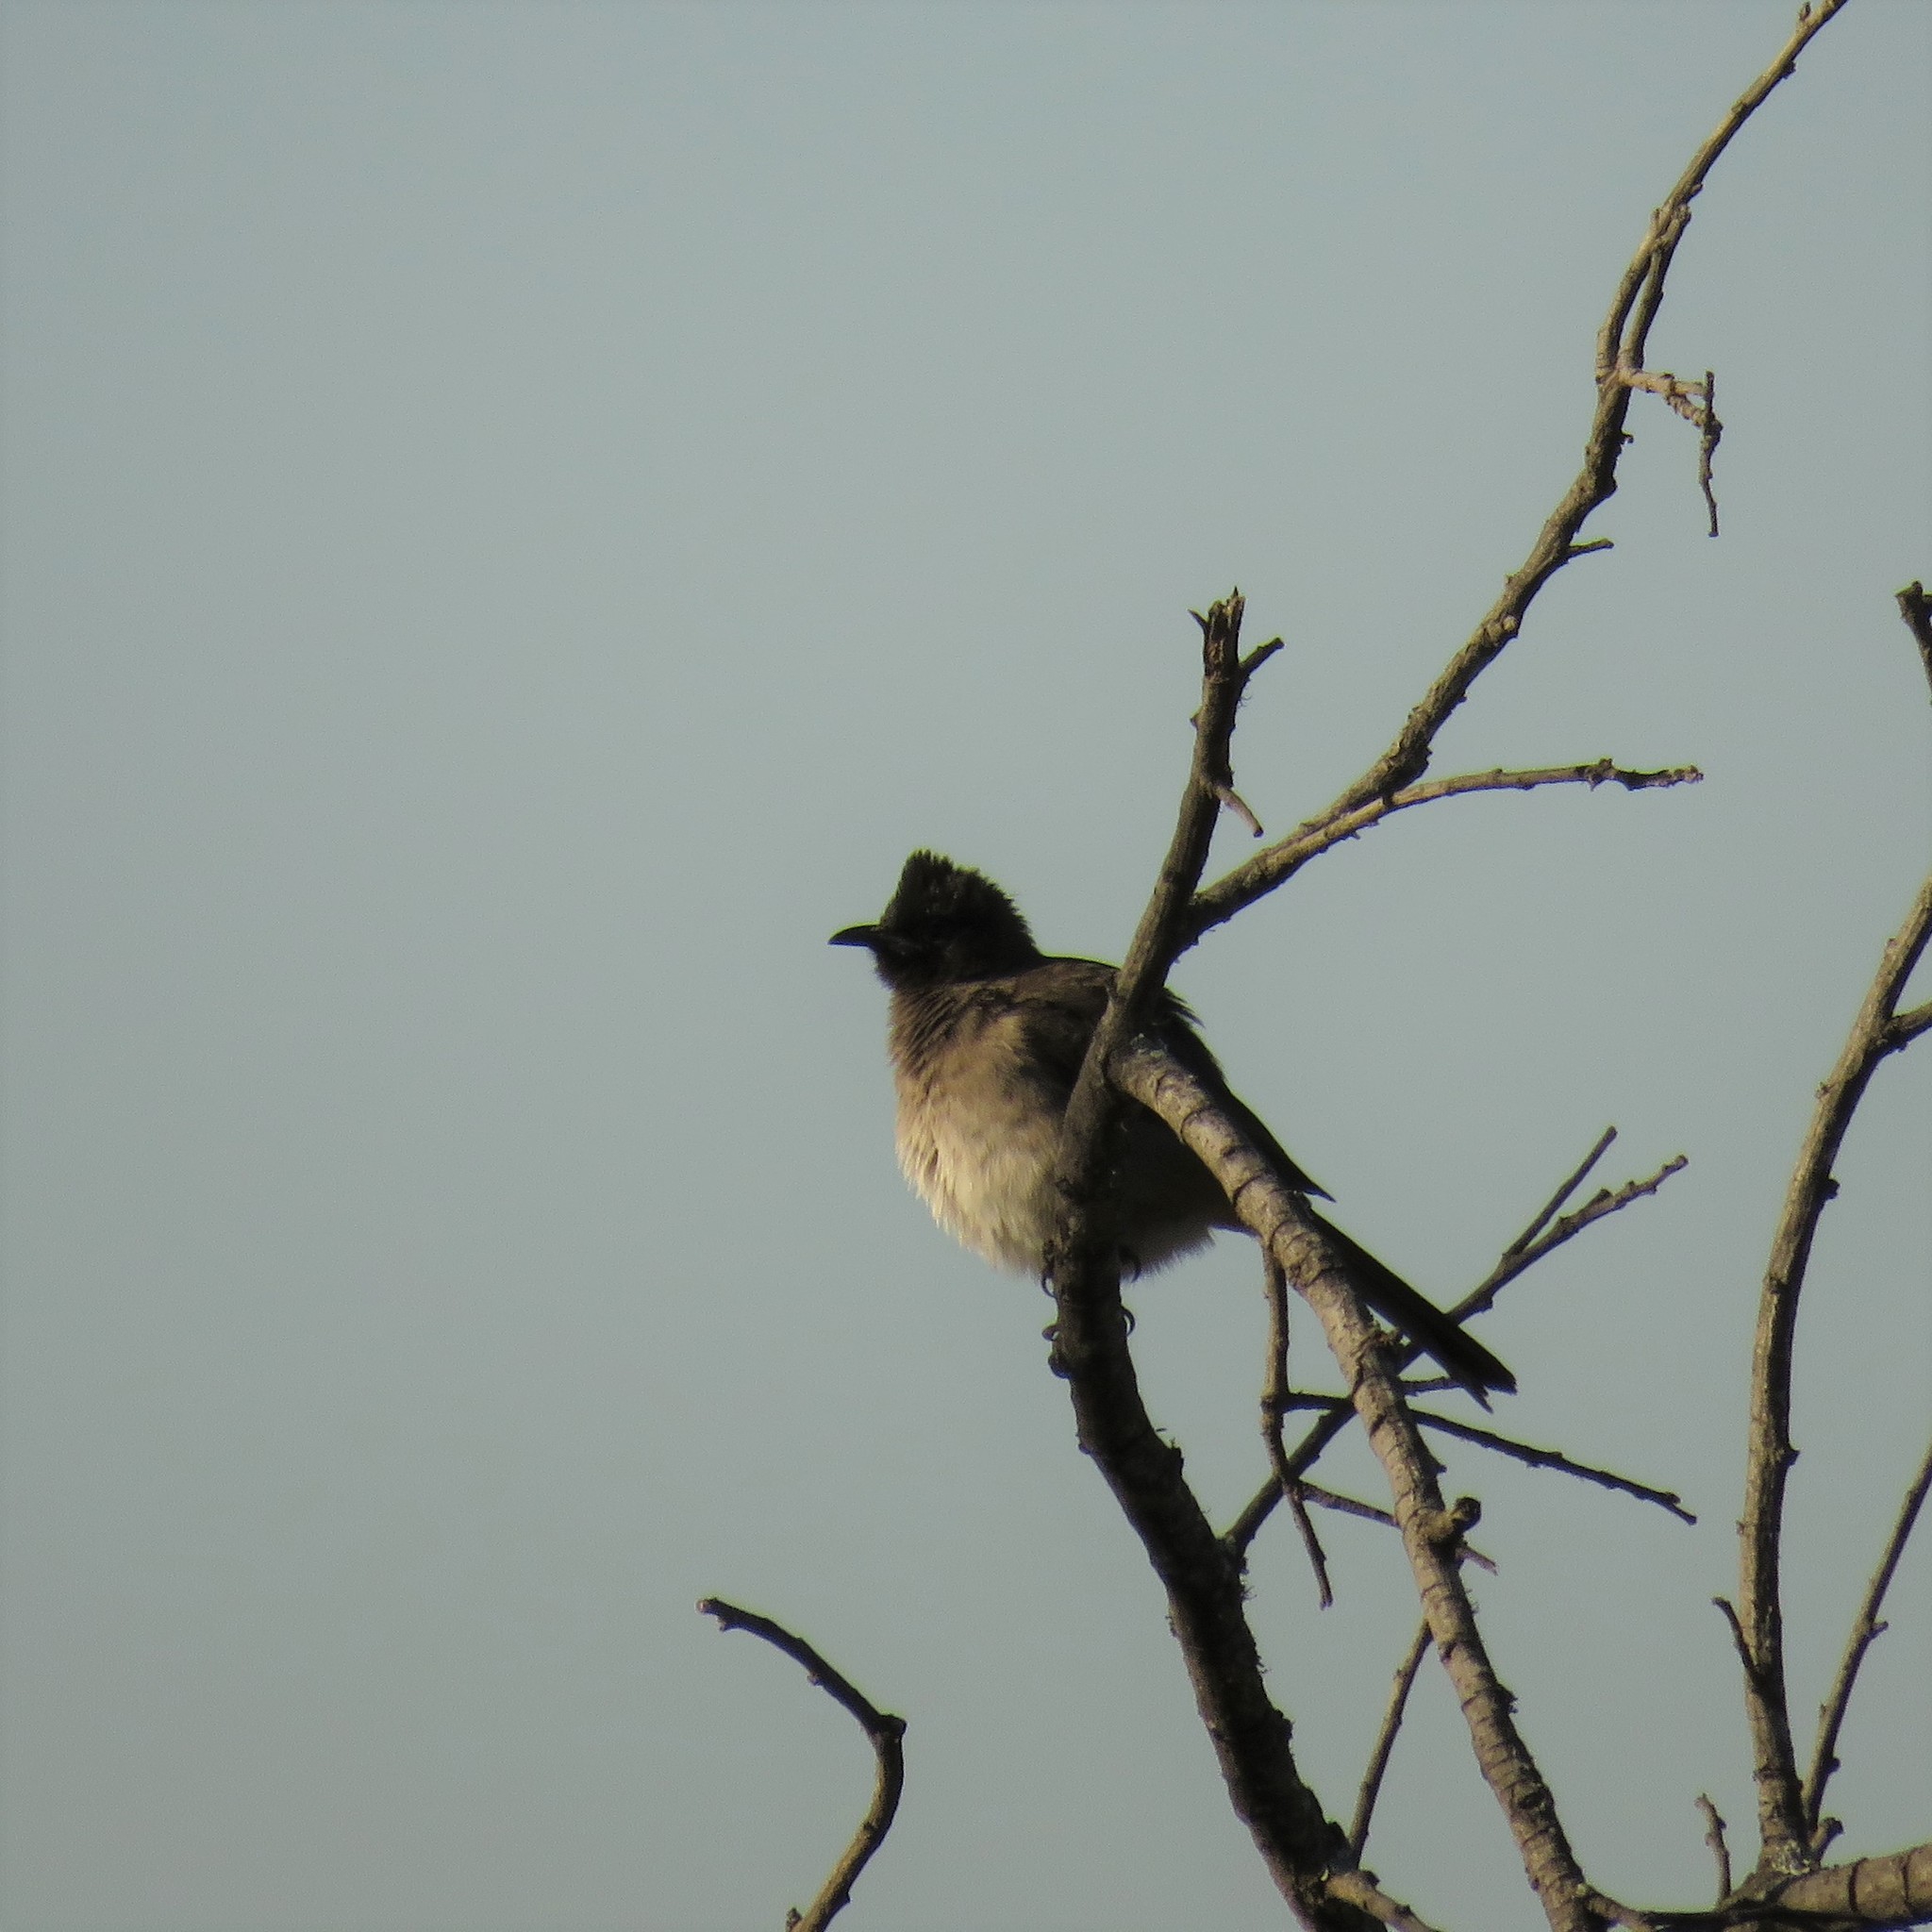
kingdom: Animalia
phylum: Chordata
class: Aves
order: Passeriformes
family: Pycnonotidae
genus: Pycnonotus
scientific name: Pycnonotus barbatus
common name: Common bulbul
